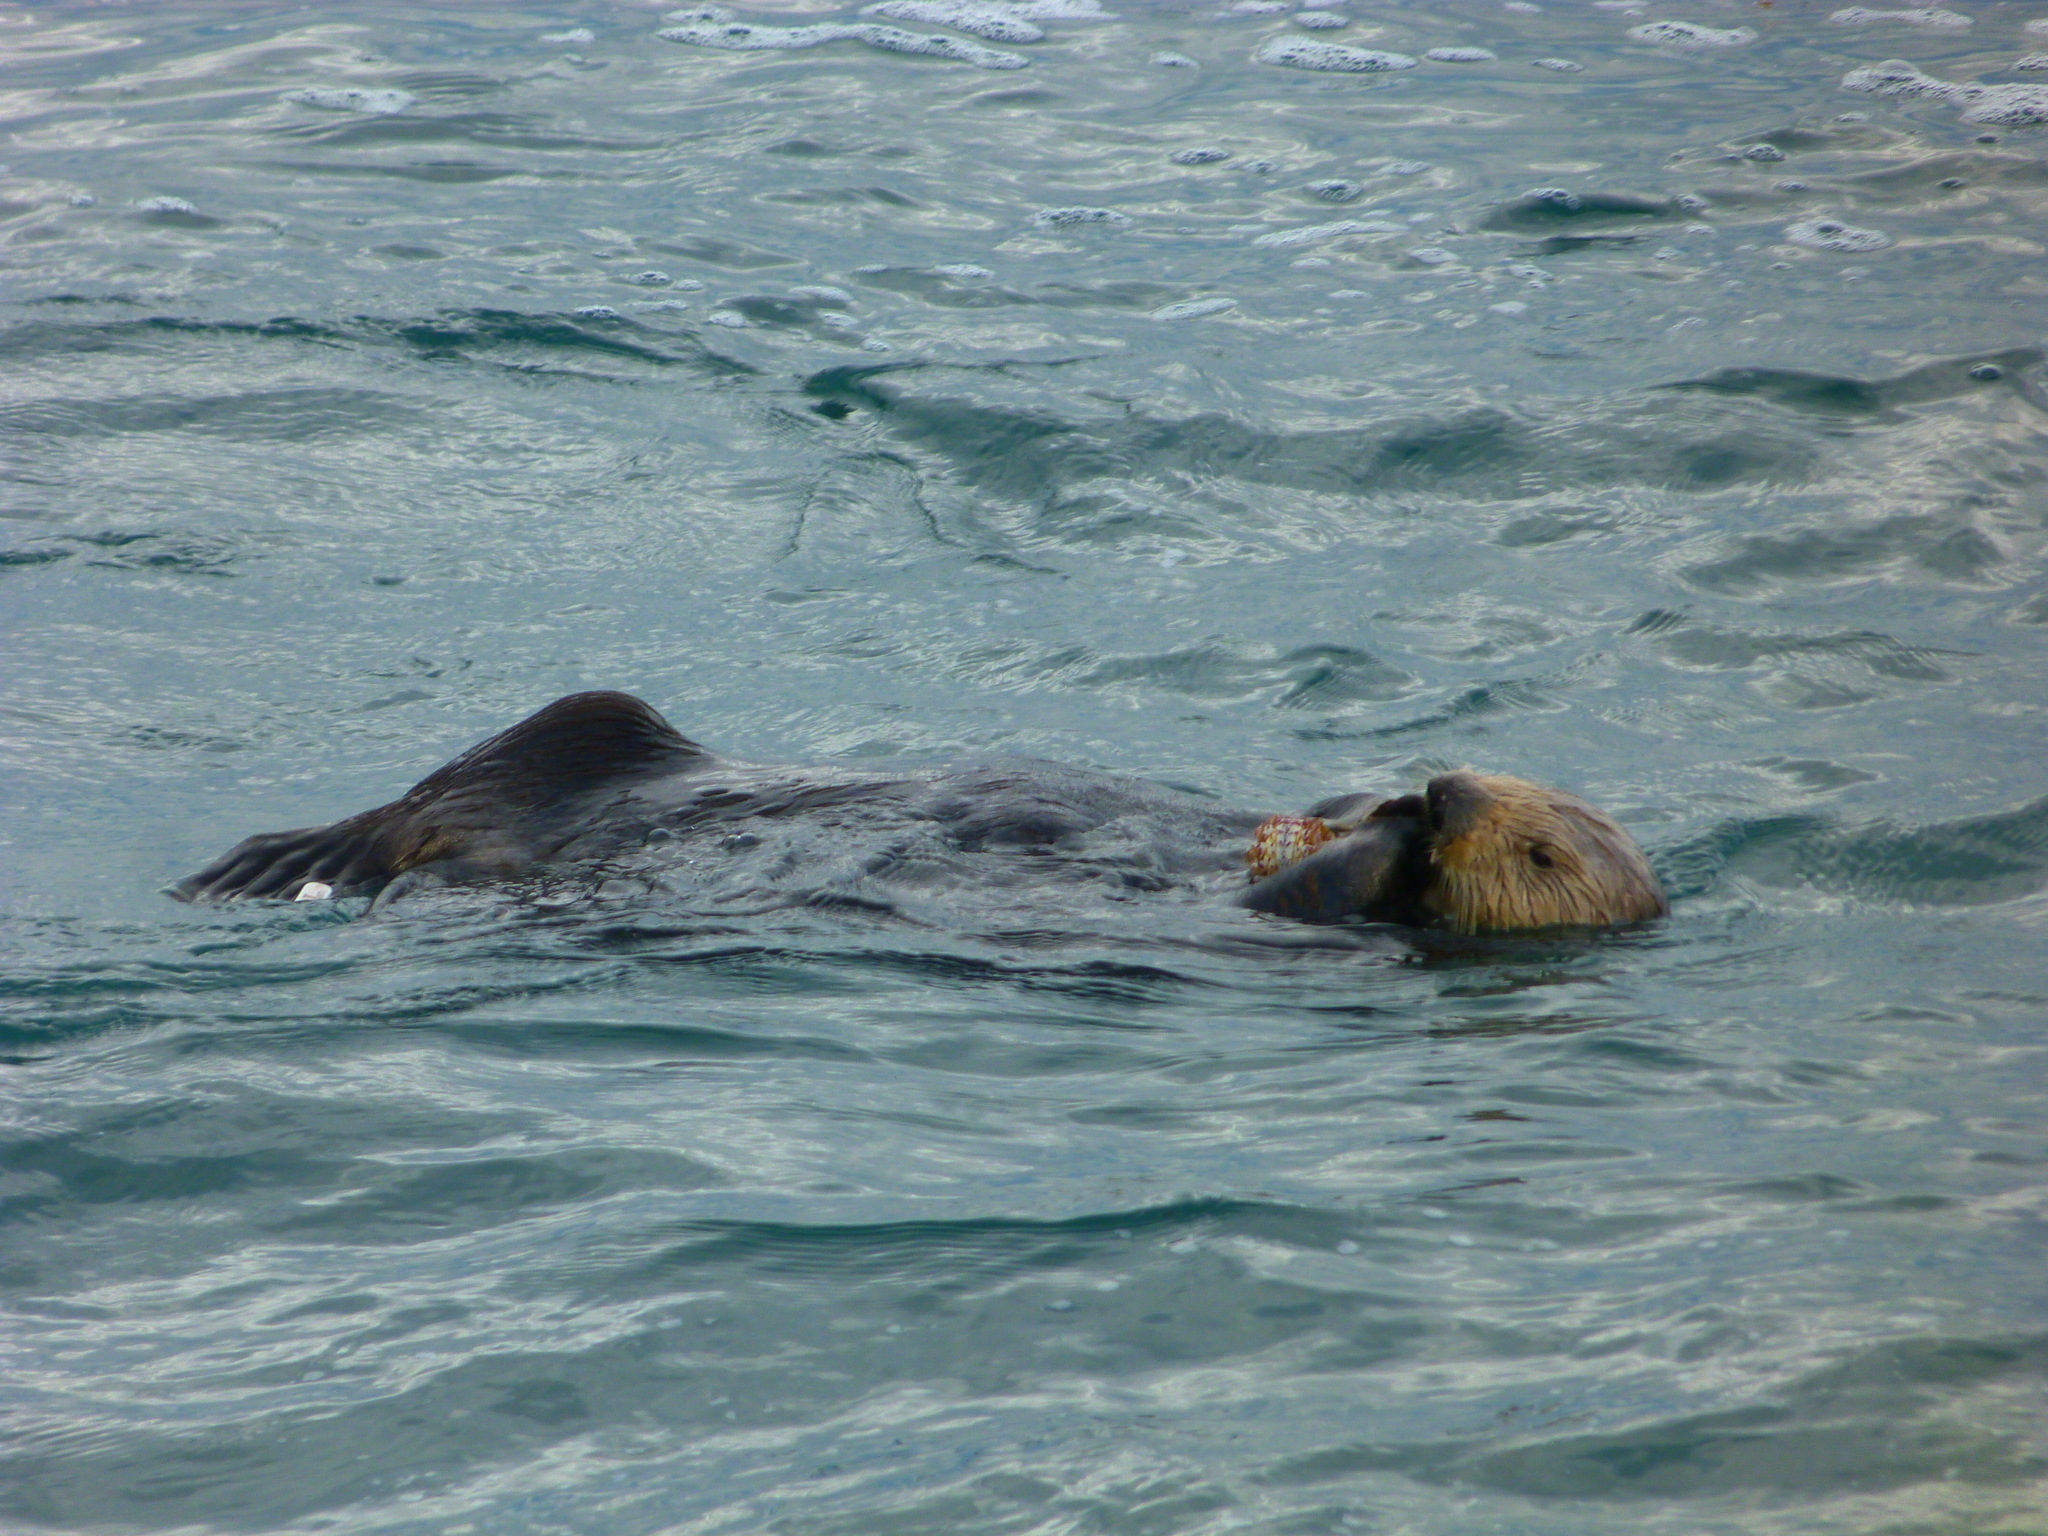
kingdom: Animalia
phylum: Chordata
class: Mammalia
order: Carnivora
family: Mustelidae
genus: Enhydra
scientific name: Enhydra lutris
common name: Sea otter
